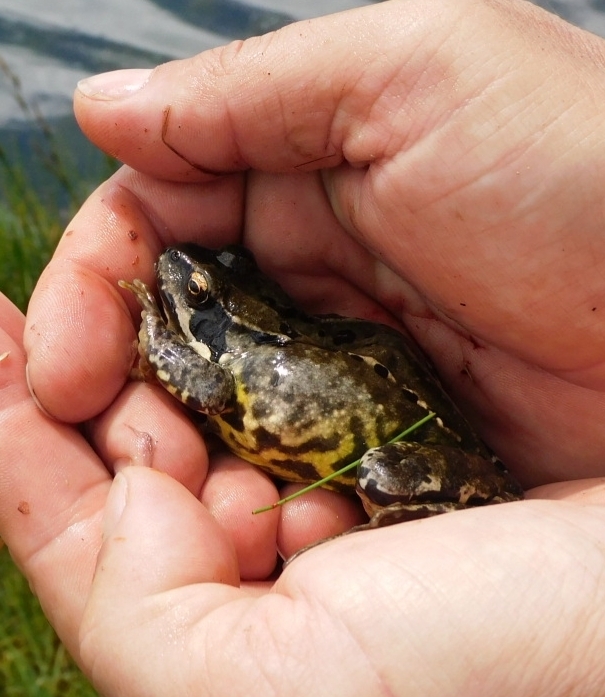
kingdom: Animalia
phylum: Chordata
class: Amphibia
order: Anura
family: Ranidae
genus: Rana
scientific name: Rana temporaria
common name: Common frog
